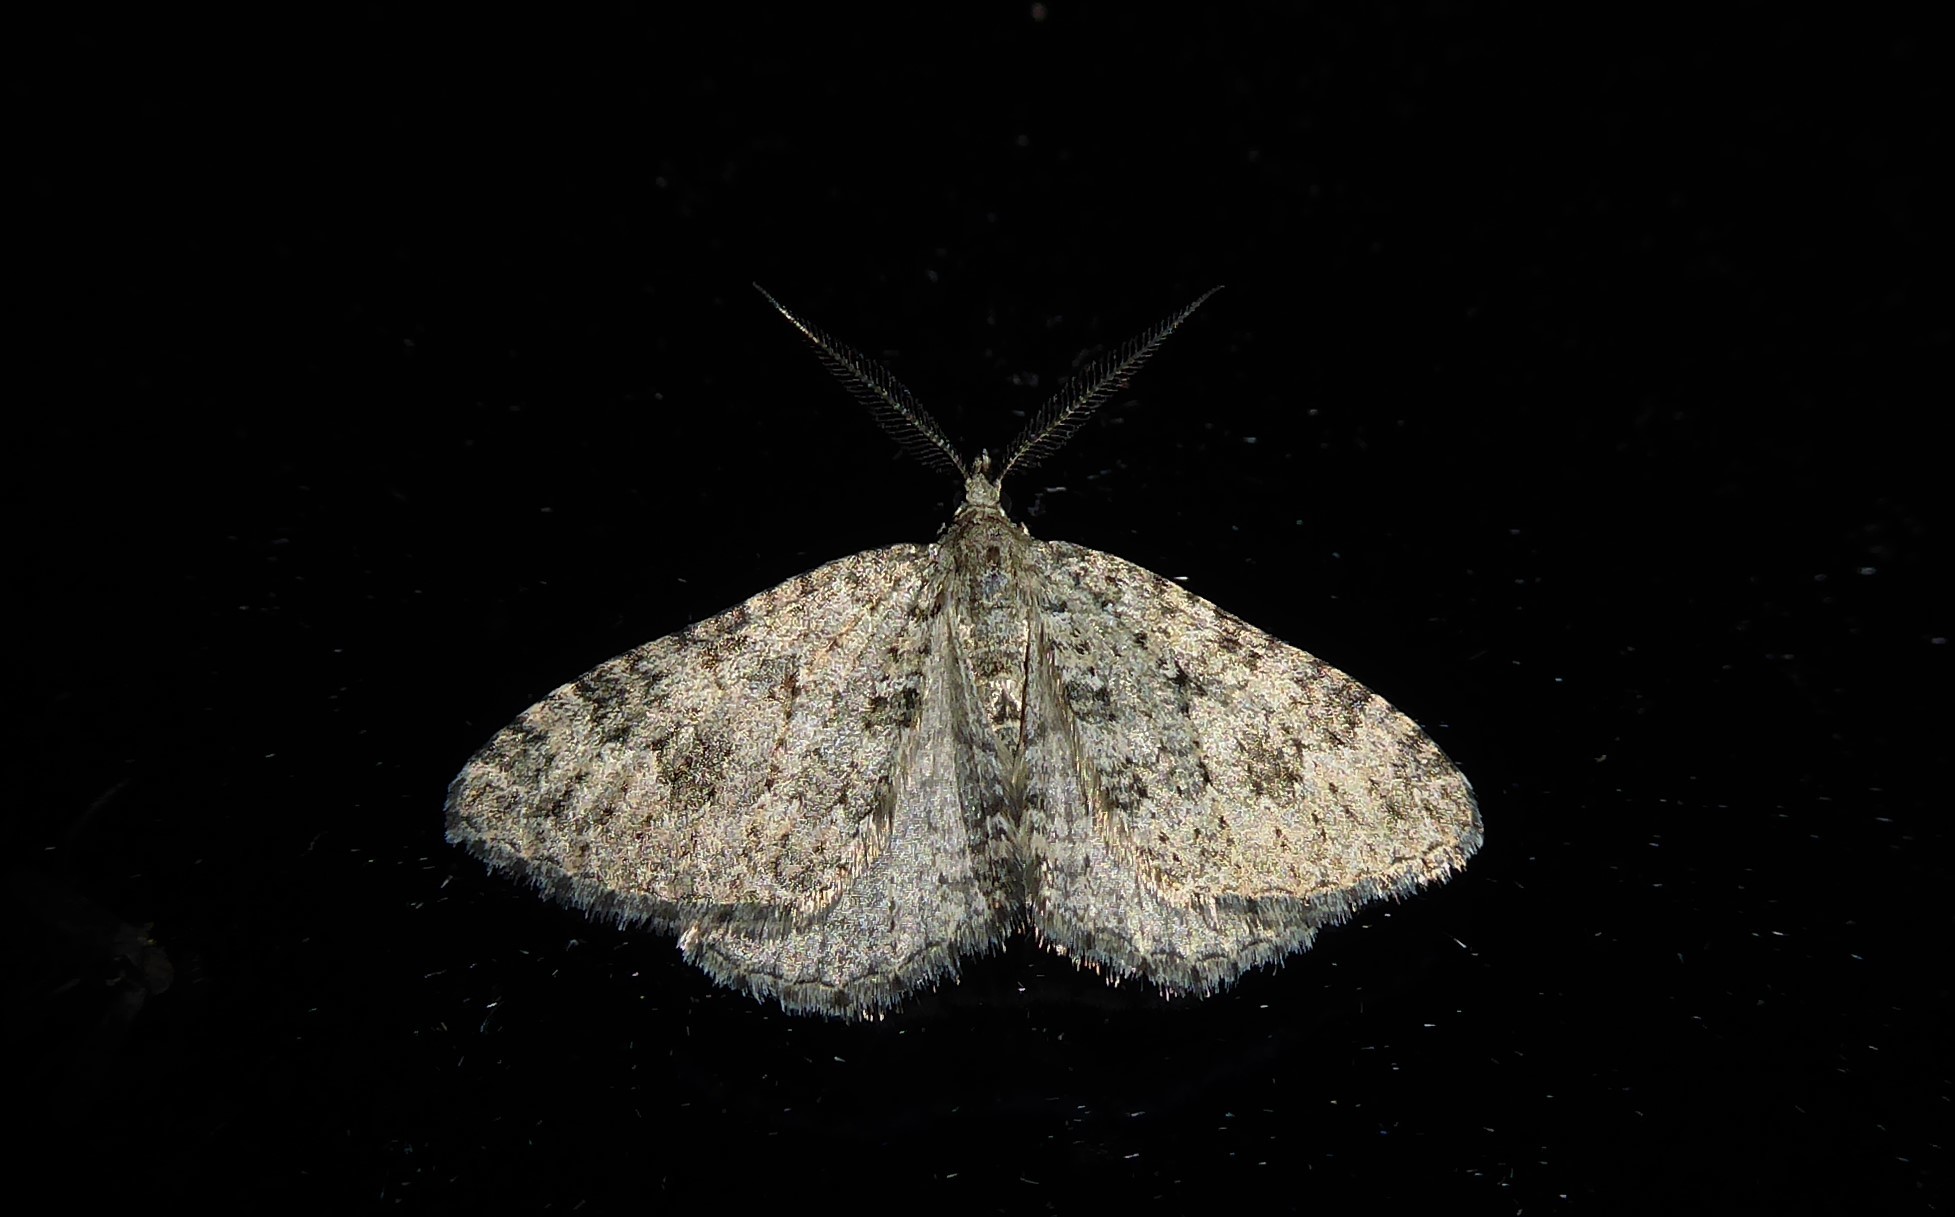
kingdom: Animalia
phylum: Arthropoda
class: Insecta
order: Lepidoptera
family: Geometridae
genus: Helastia
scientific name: Helastia corcularia
